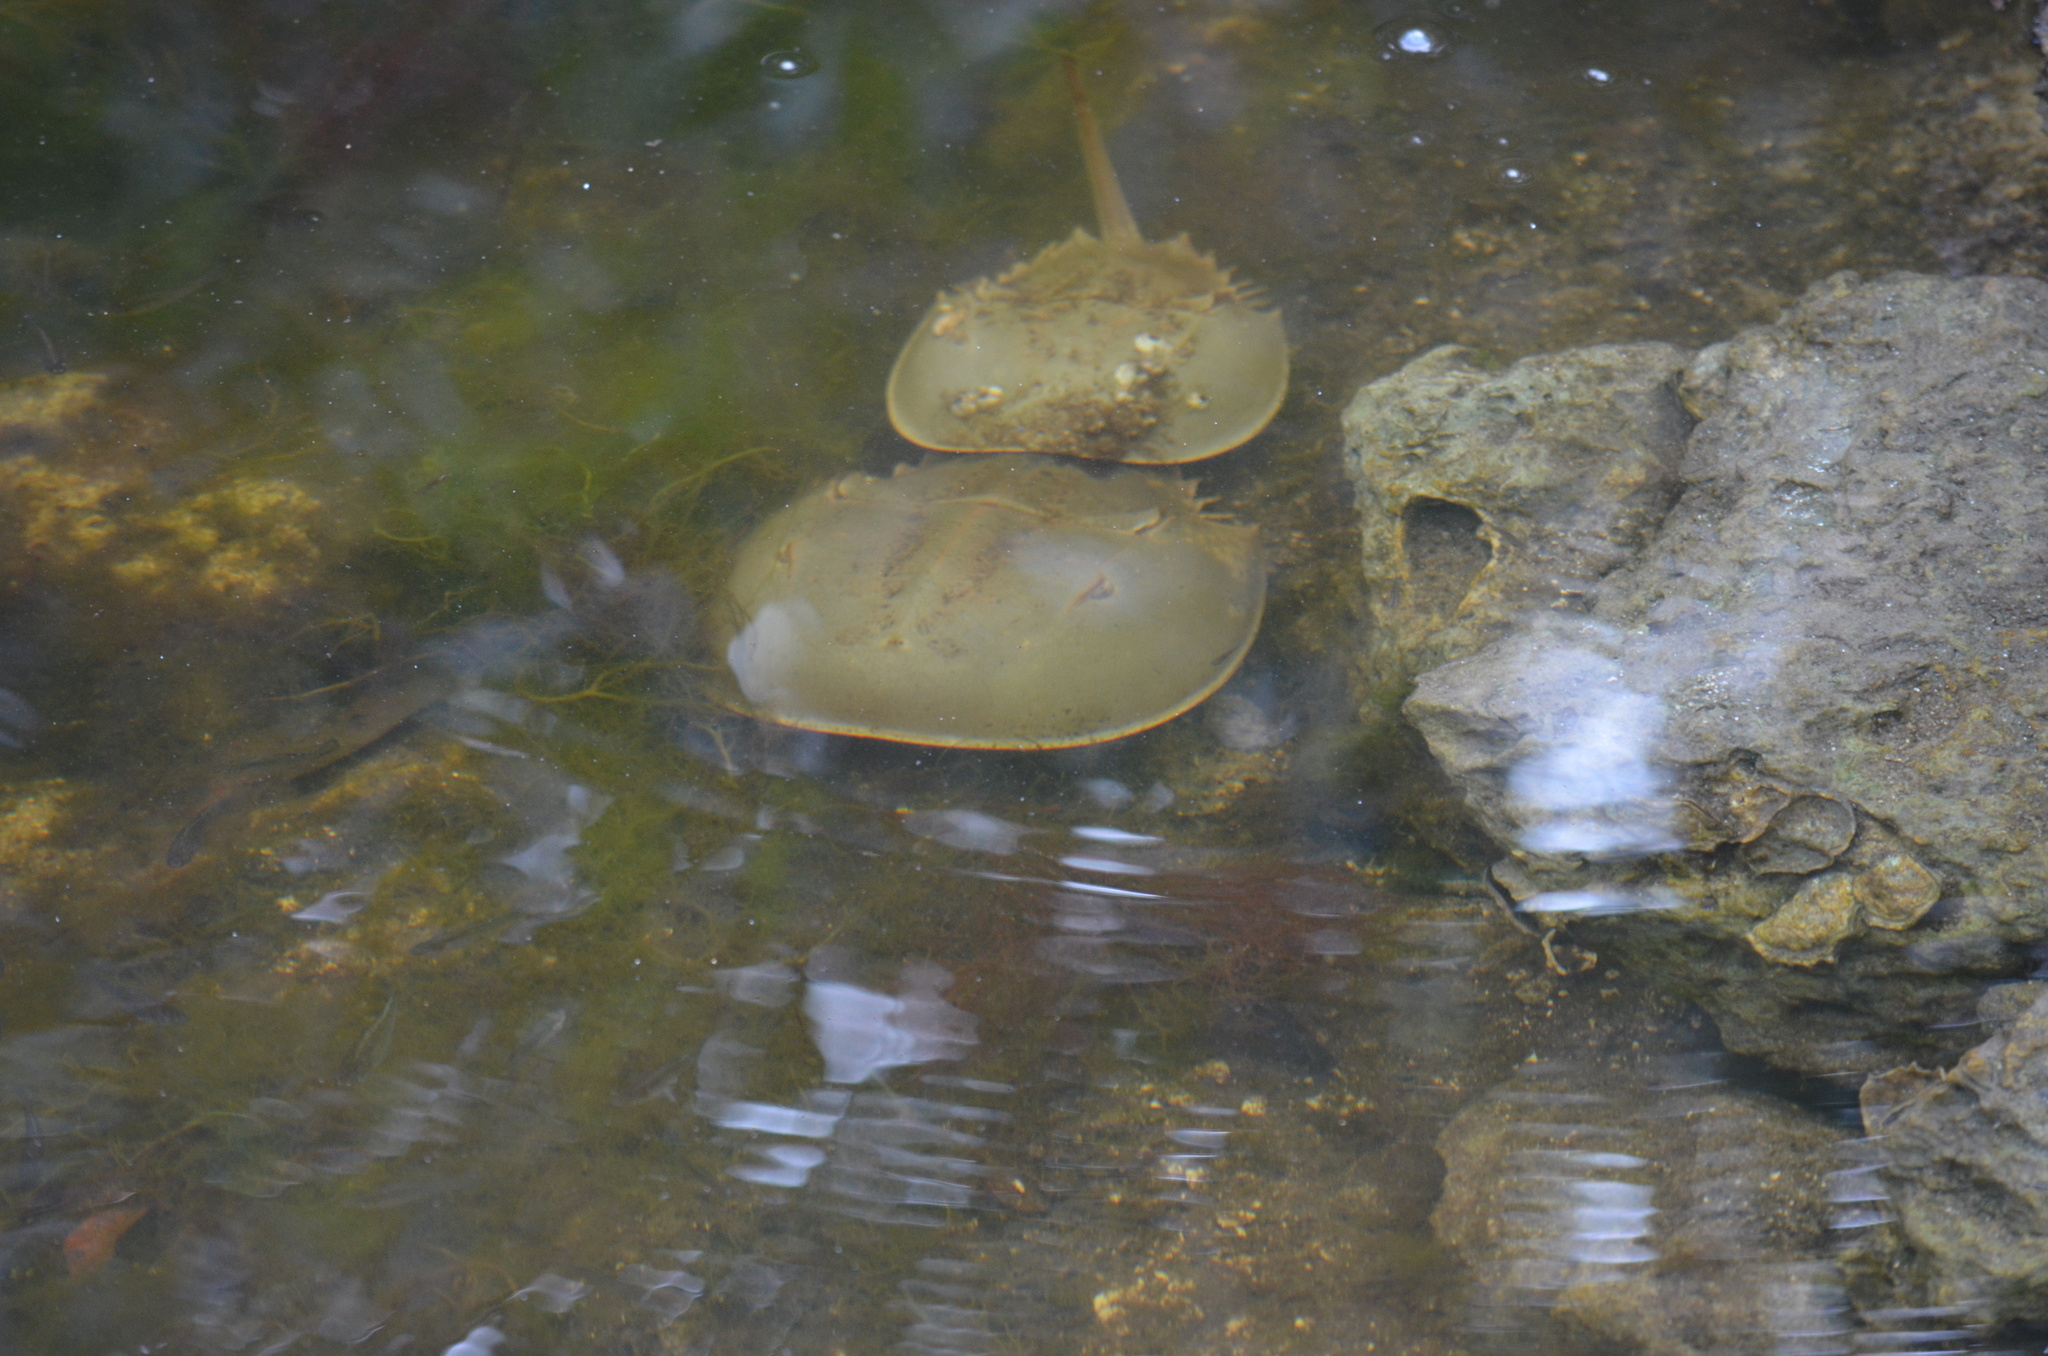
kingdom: Animalia
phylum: Arthropoda
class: Merostomata
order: Xiphosurida
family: Limulidae
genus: Limulus
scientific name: Limulus polyphemus
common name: Horseshoe crab
